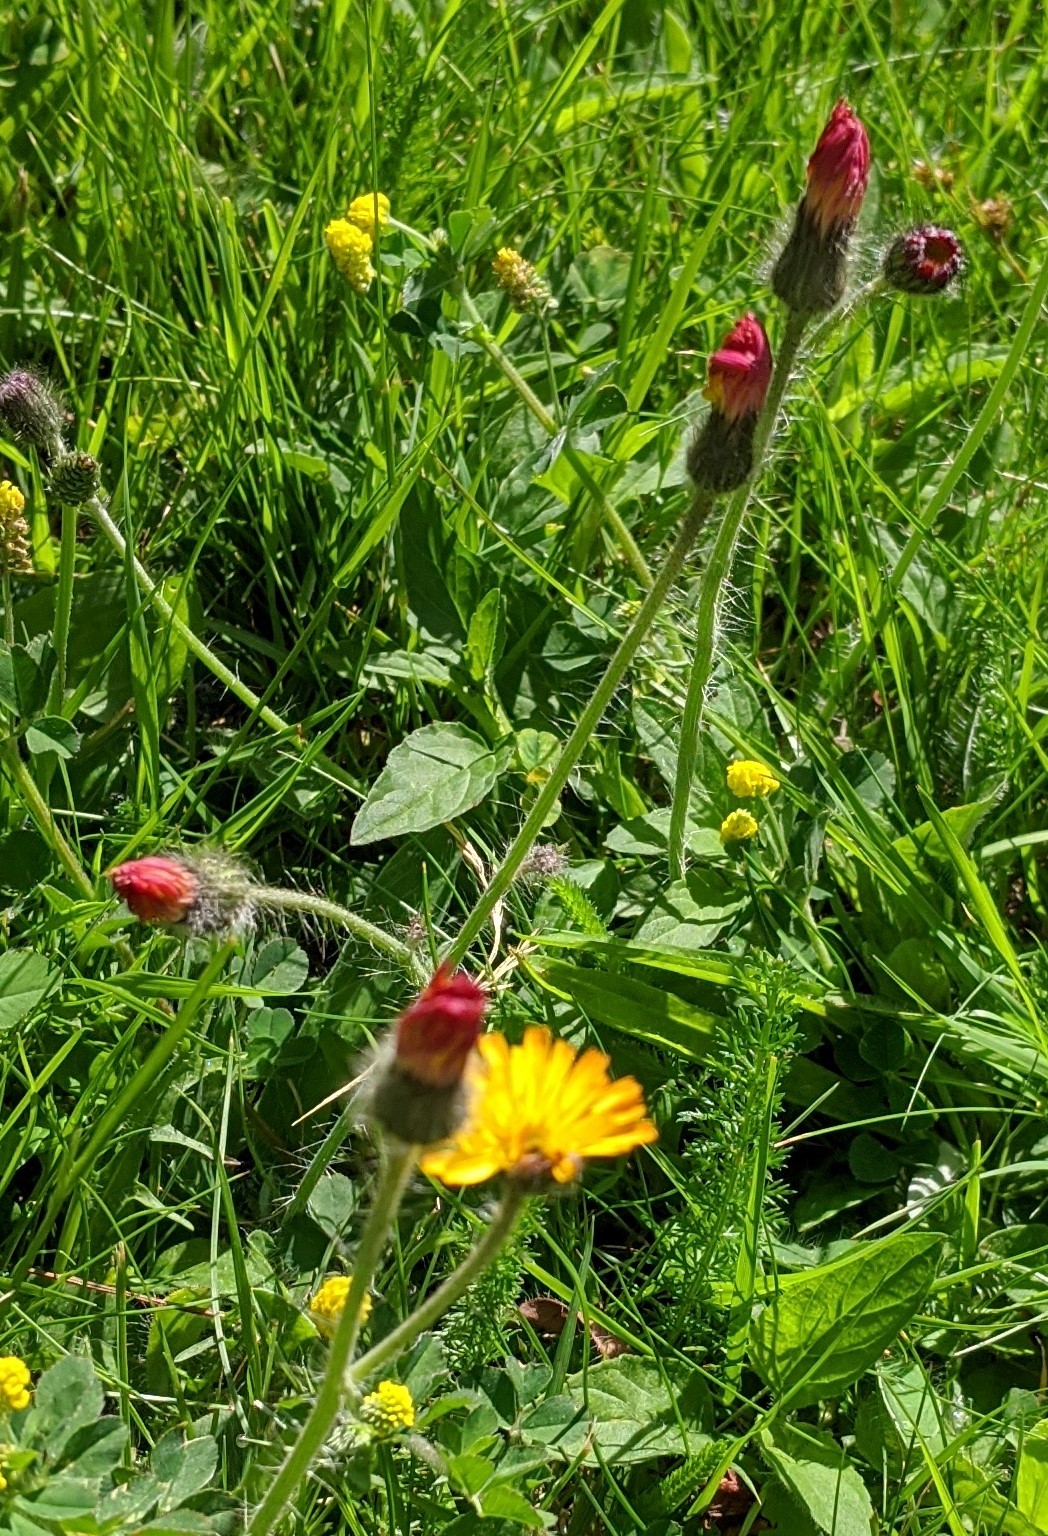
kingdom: Plantae
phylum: Tracheophyta
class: Magnoliopsida
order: Asterales
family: Asteraceae
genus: Pilosella
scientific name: Pilosella aurantiaca
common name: Fox-and-cubs
